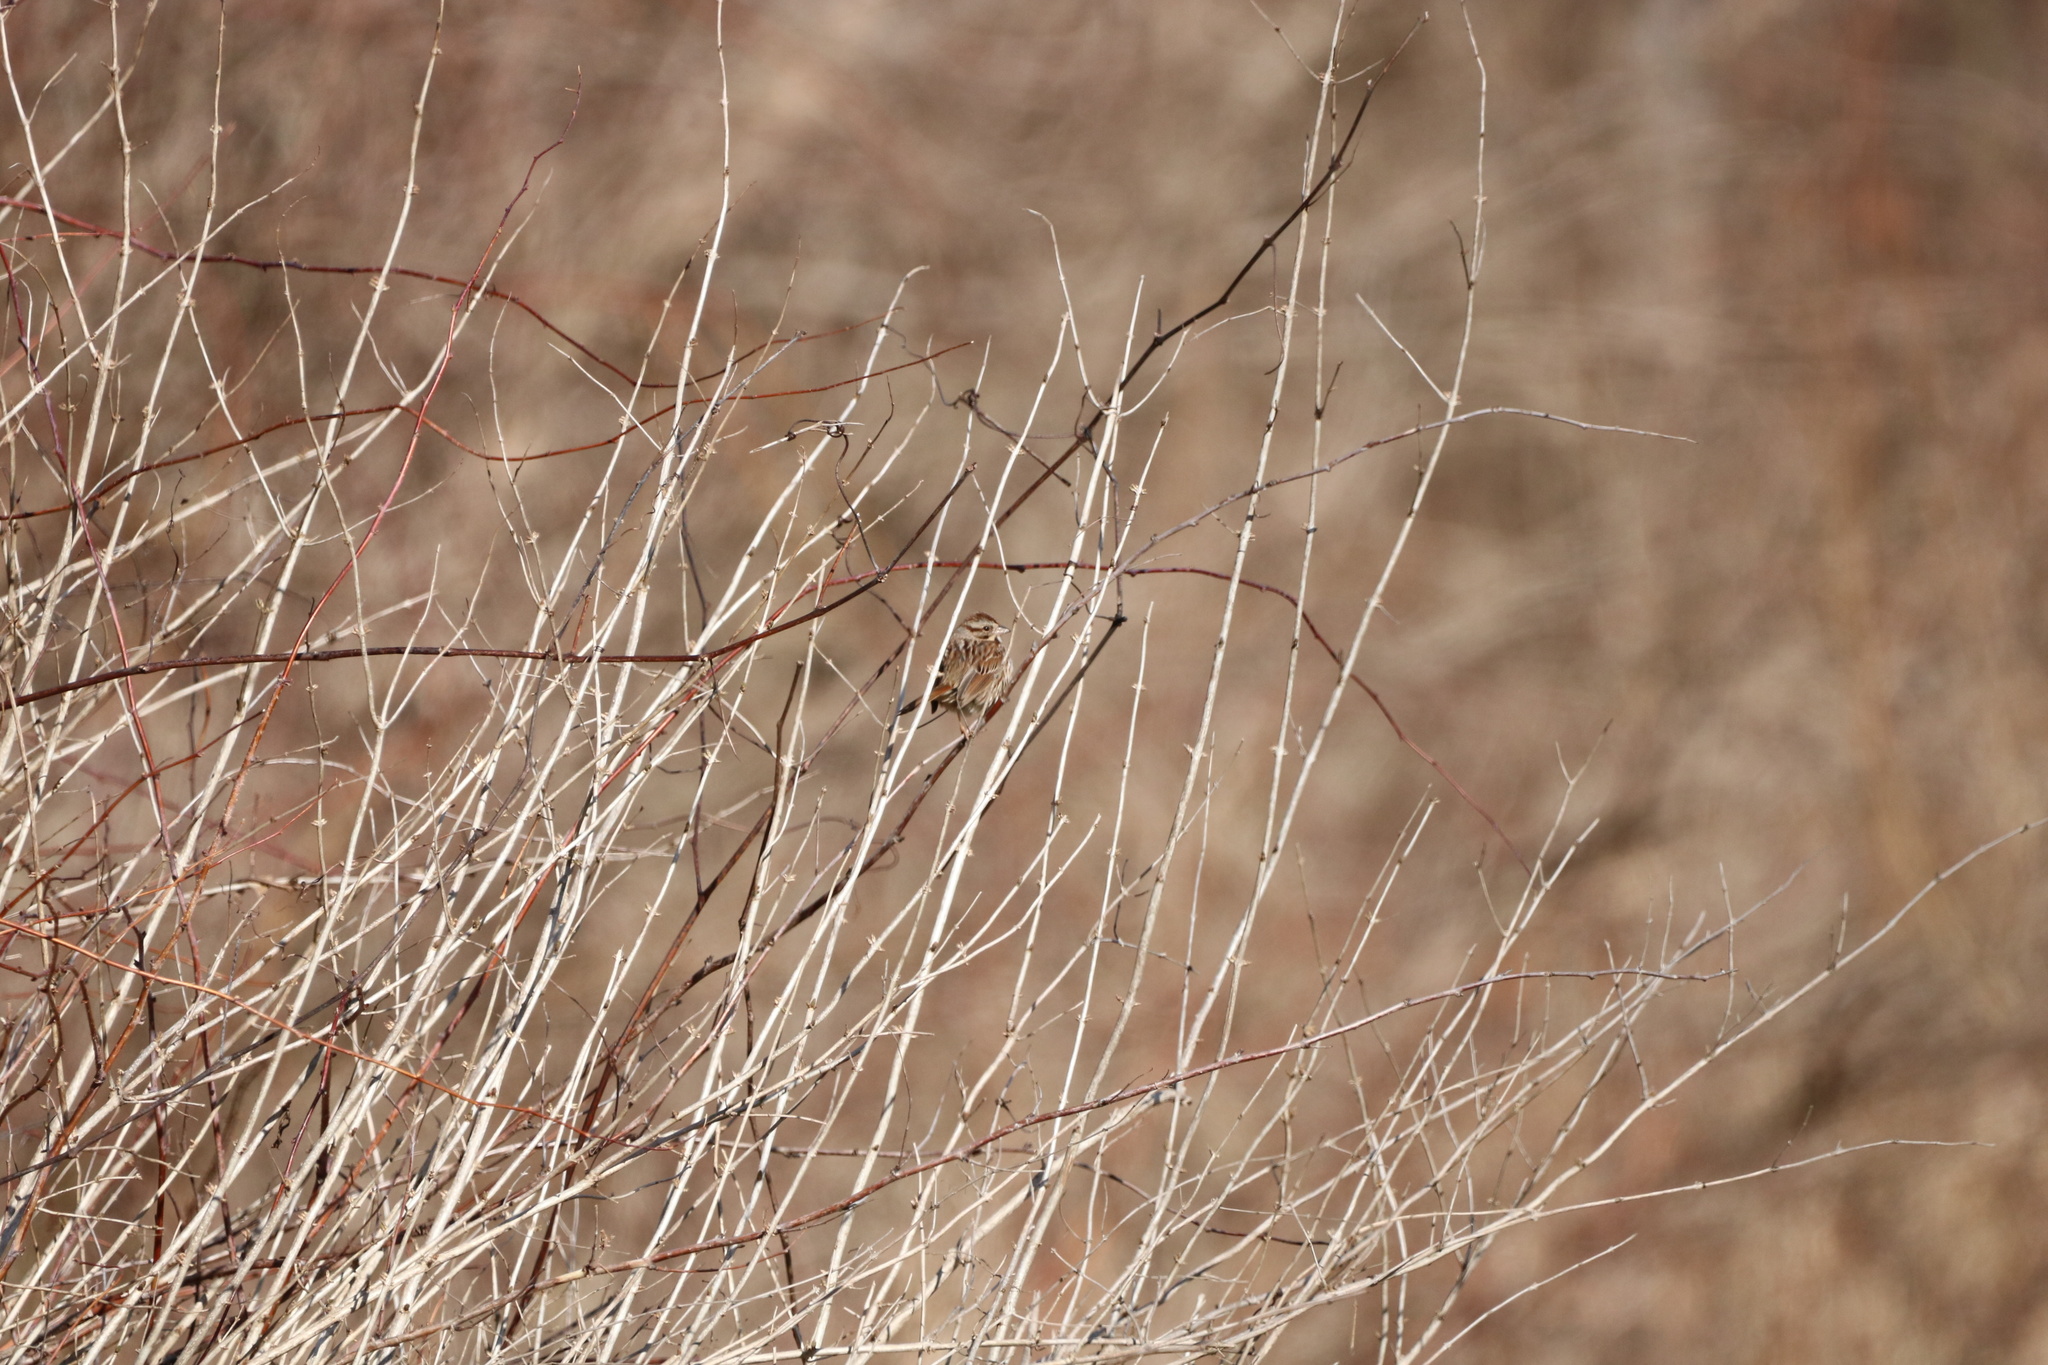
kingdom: Animalia
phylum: Chordata
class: Aves
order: Passeriformes
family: Passerellidae
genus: Melospiza
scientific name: Melospiza melodia
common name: Song sparrow
